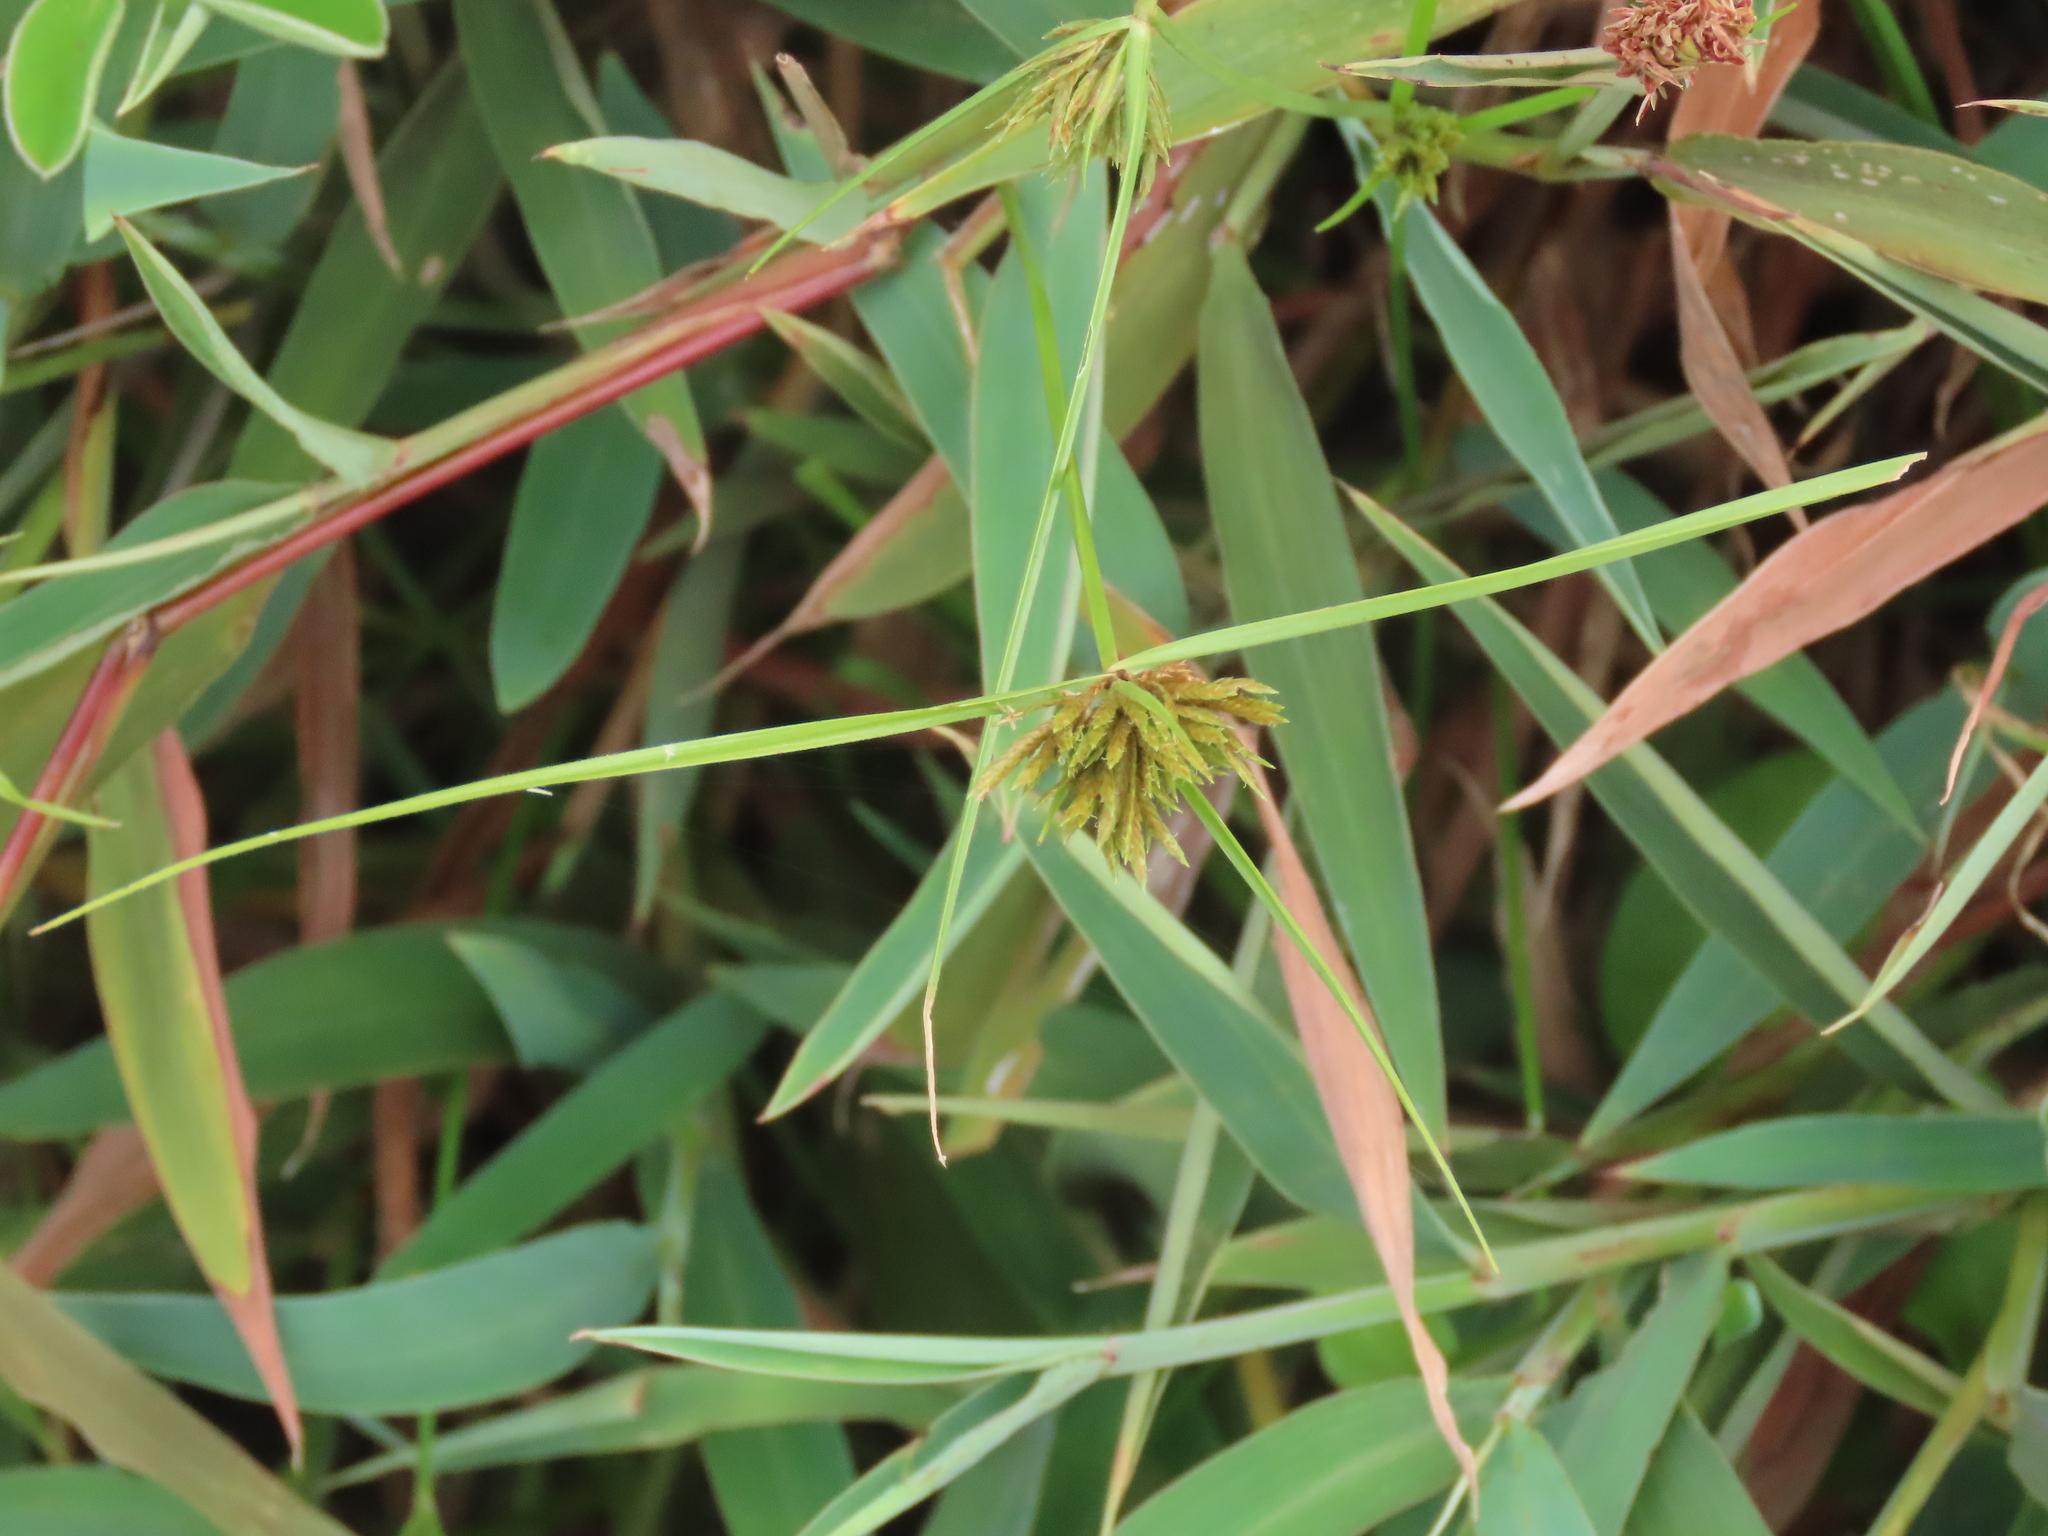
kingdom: Plantae
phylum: Tracheophyta
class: Liliopsida
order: Poales
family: Cyperaceae
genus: Cyperus
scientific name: Cyperus polystachyos
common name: Bunchy flat sedge
